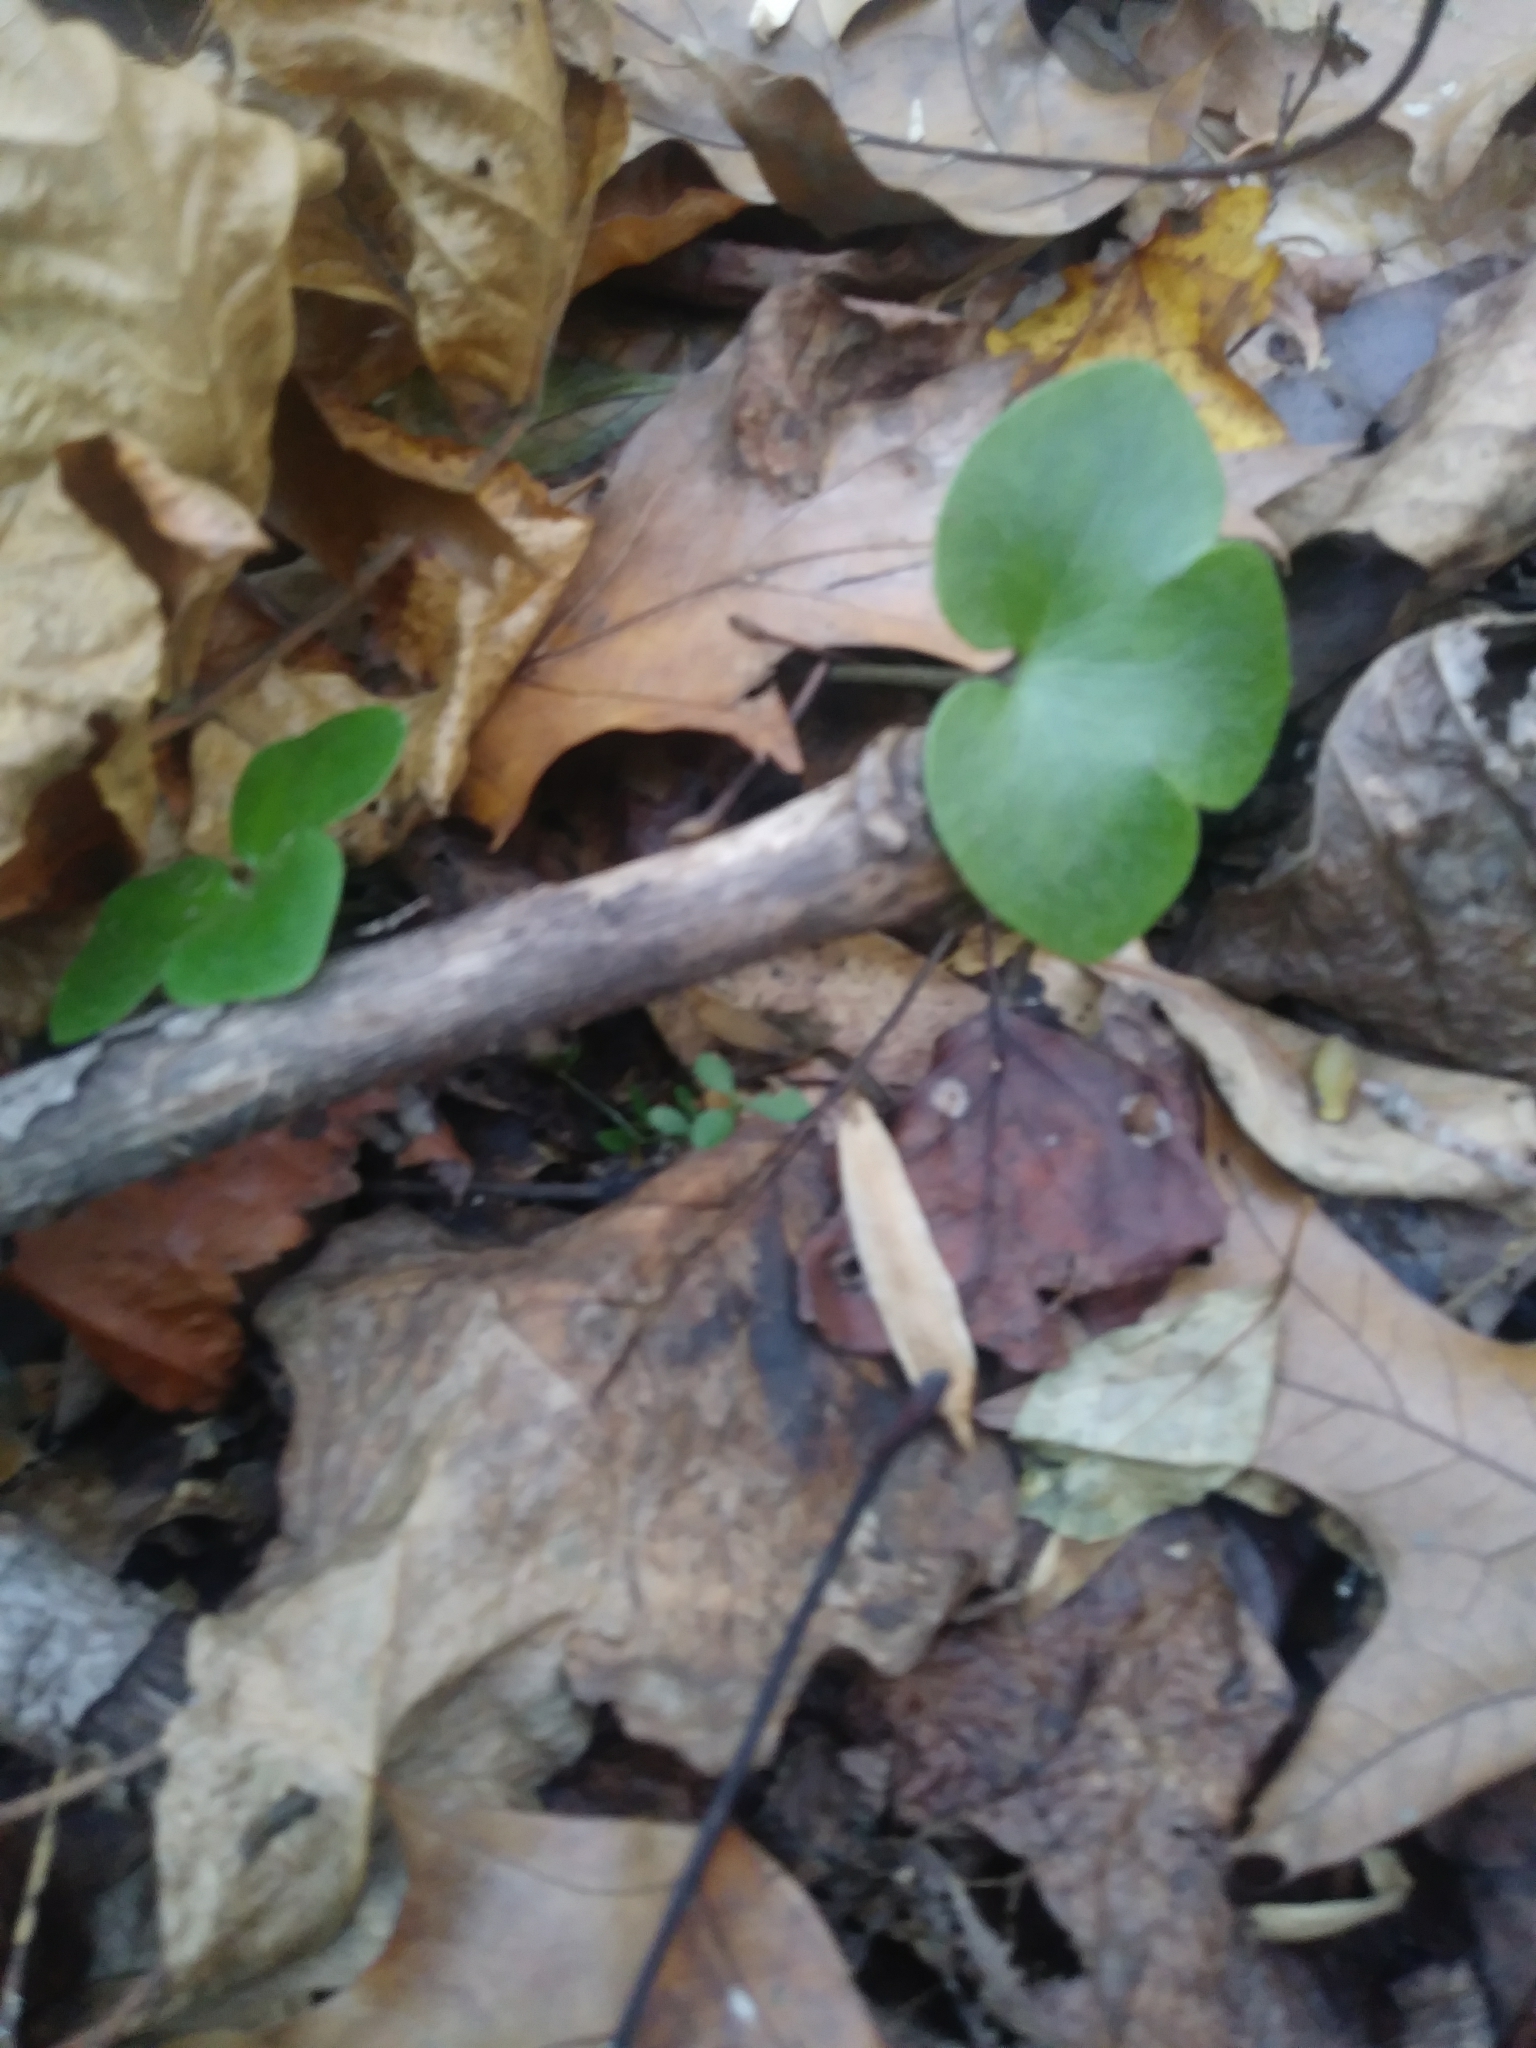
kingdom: Plantae
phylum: Tracheophyta
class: Magnoliopsida
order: Ranunculales
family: Ranunculaceae
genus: Hepatica
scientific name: Hepatica americana
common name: American hepatica
